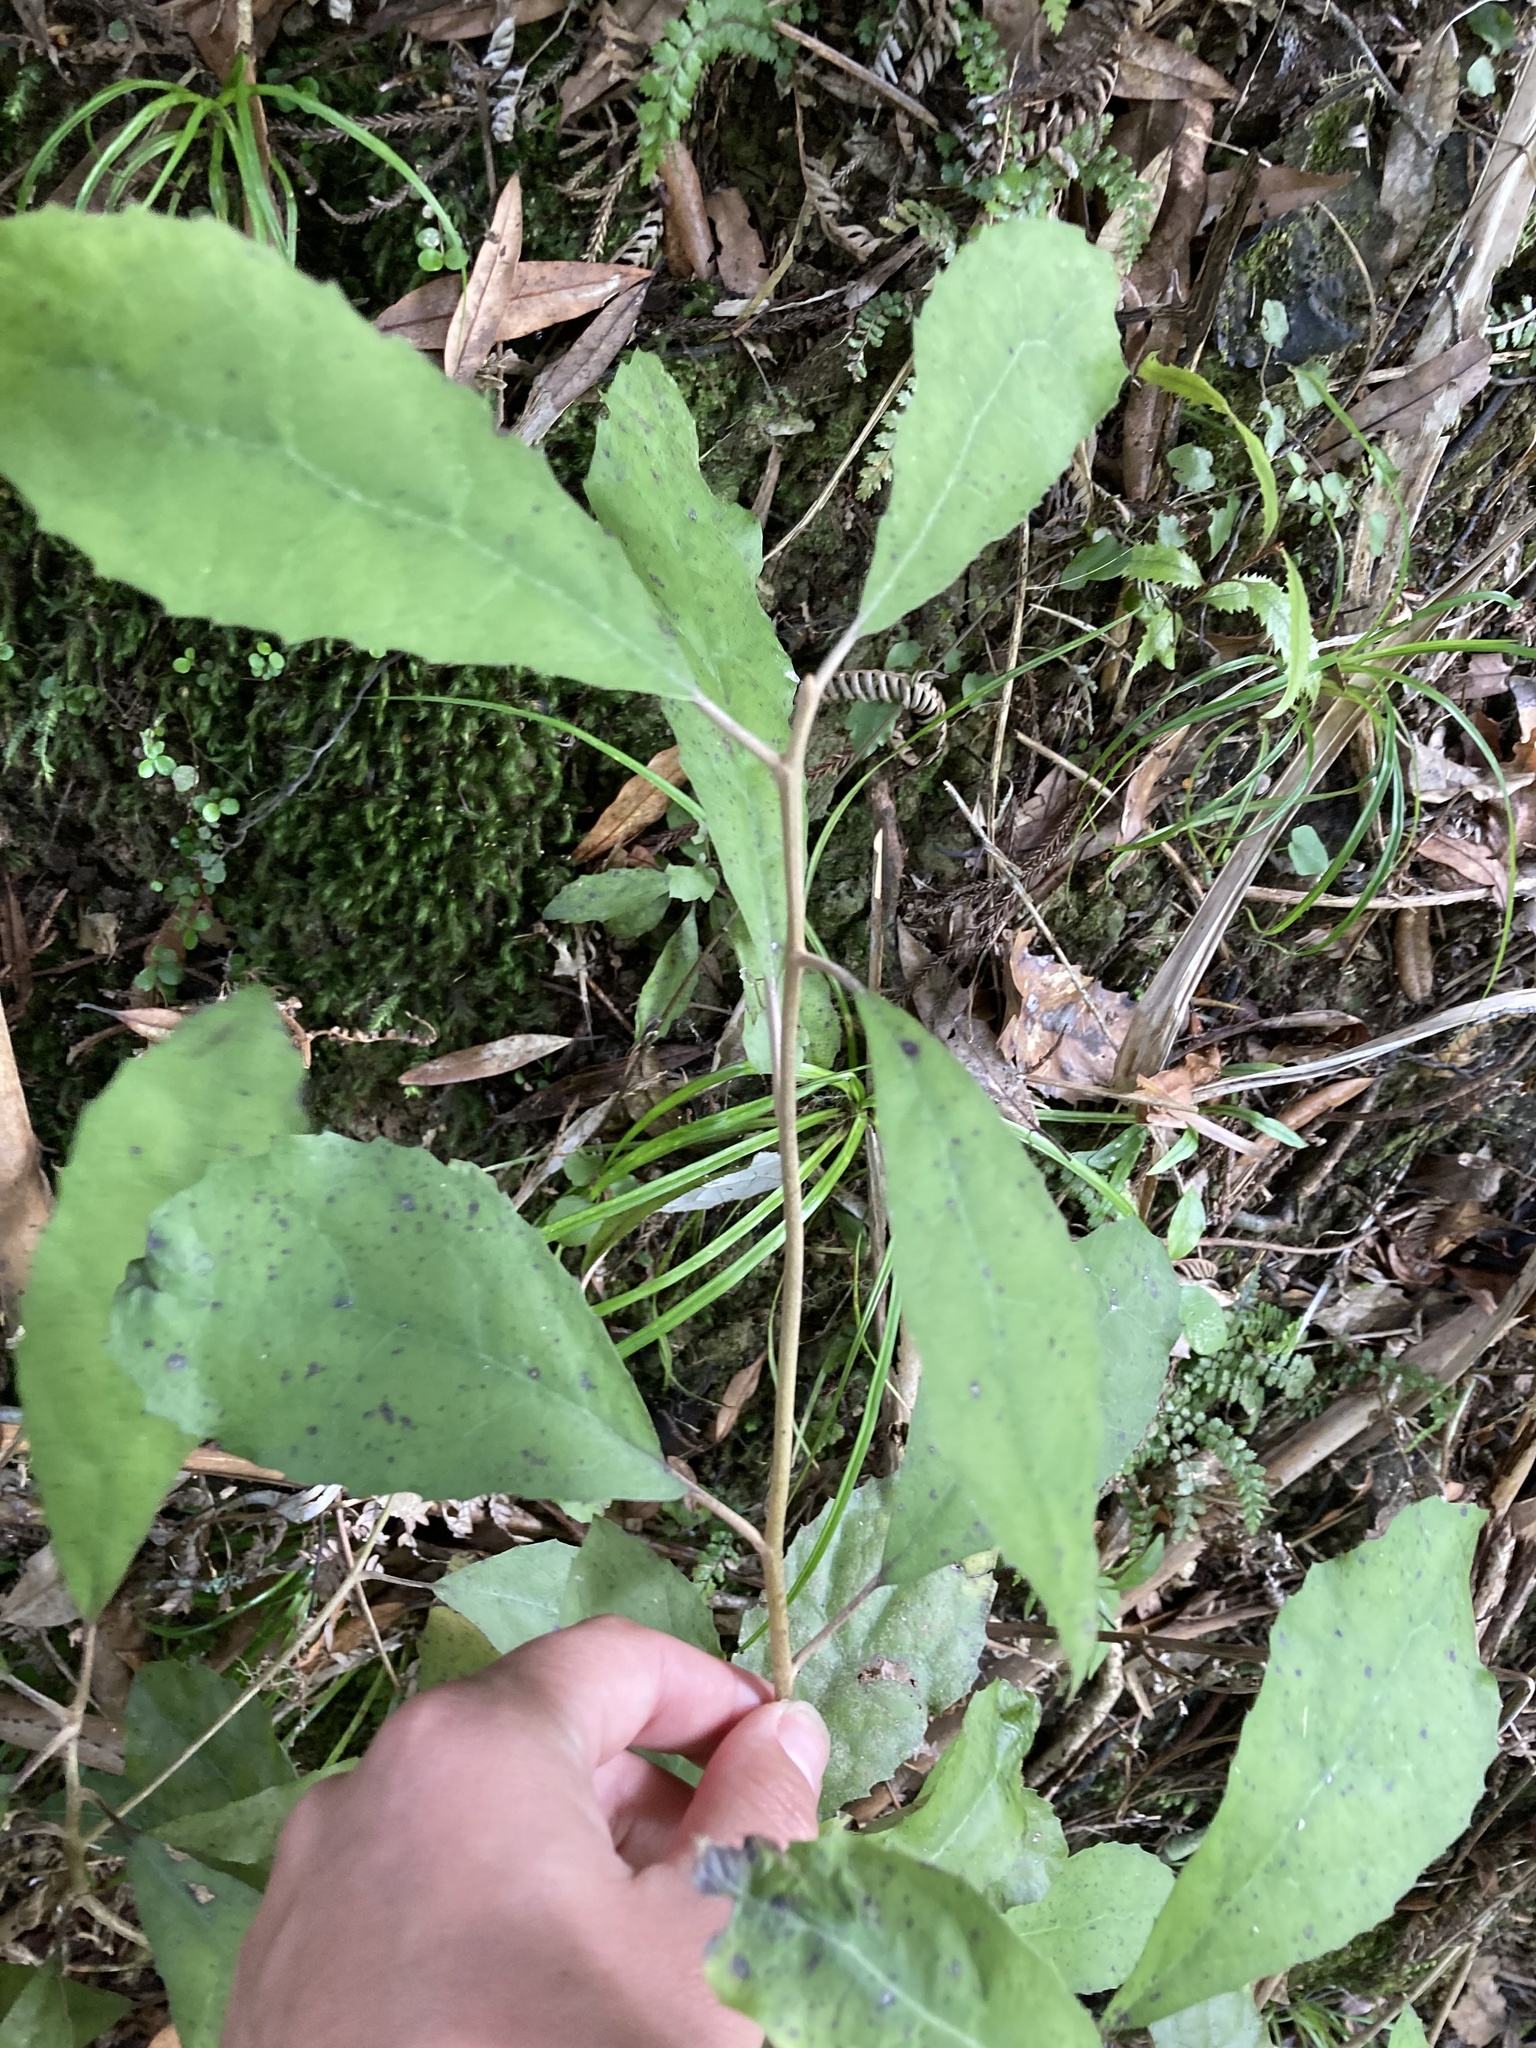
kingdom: Plantae
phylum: Tracheophyta
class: Magnoliopsida
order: Asterales
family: Asteraceae
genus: Olearia
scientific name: Olearia rani
